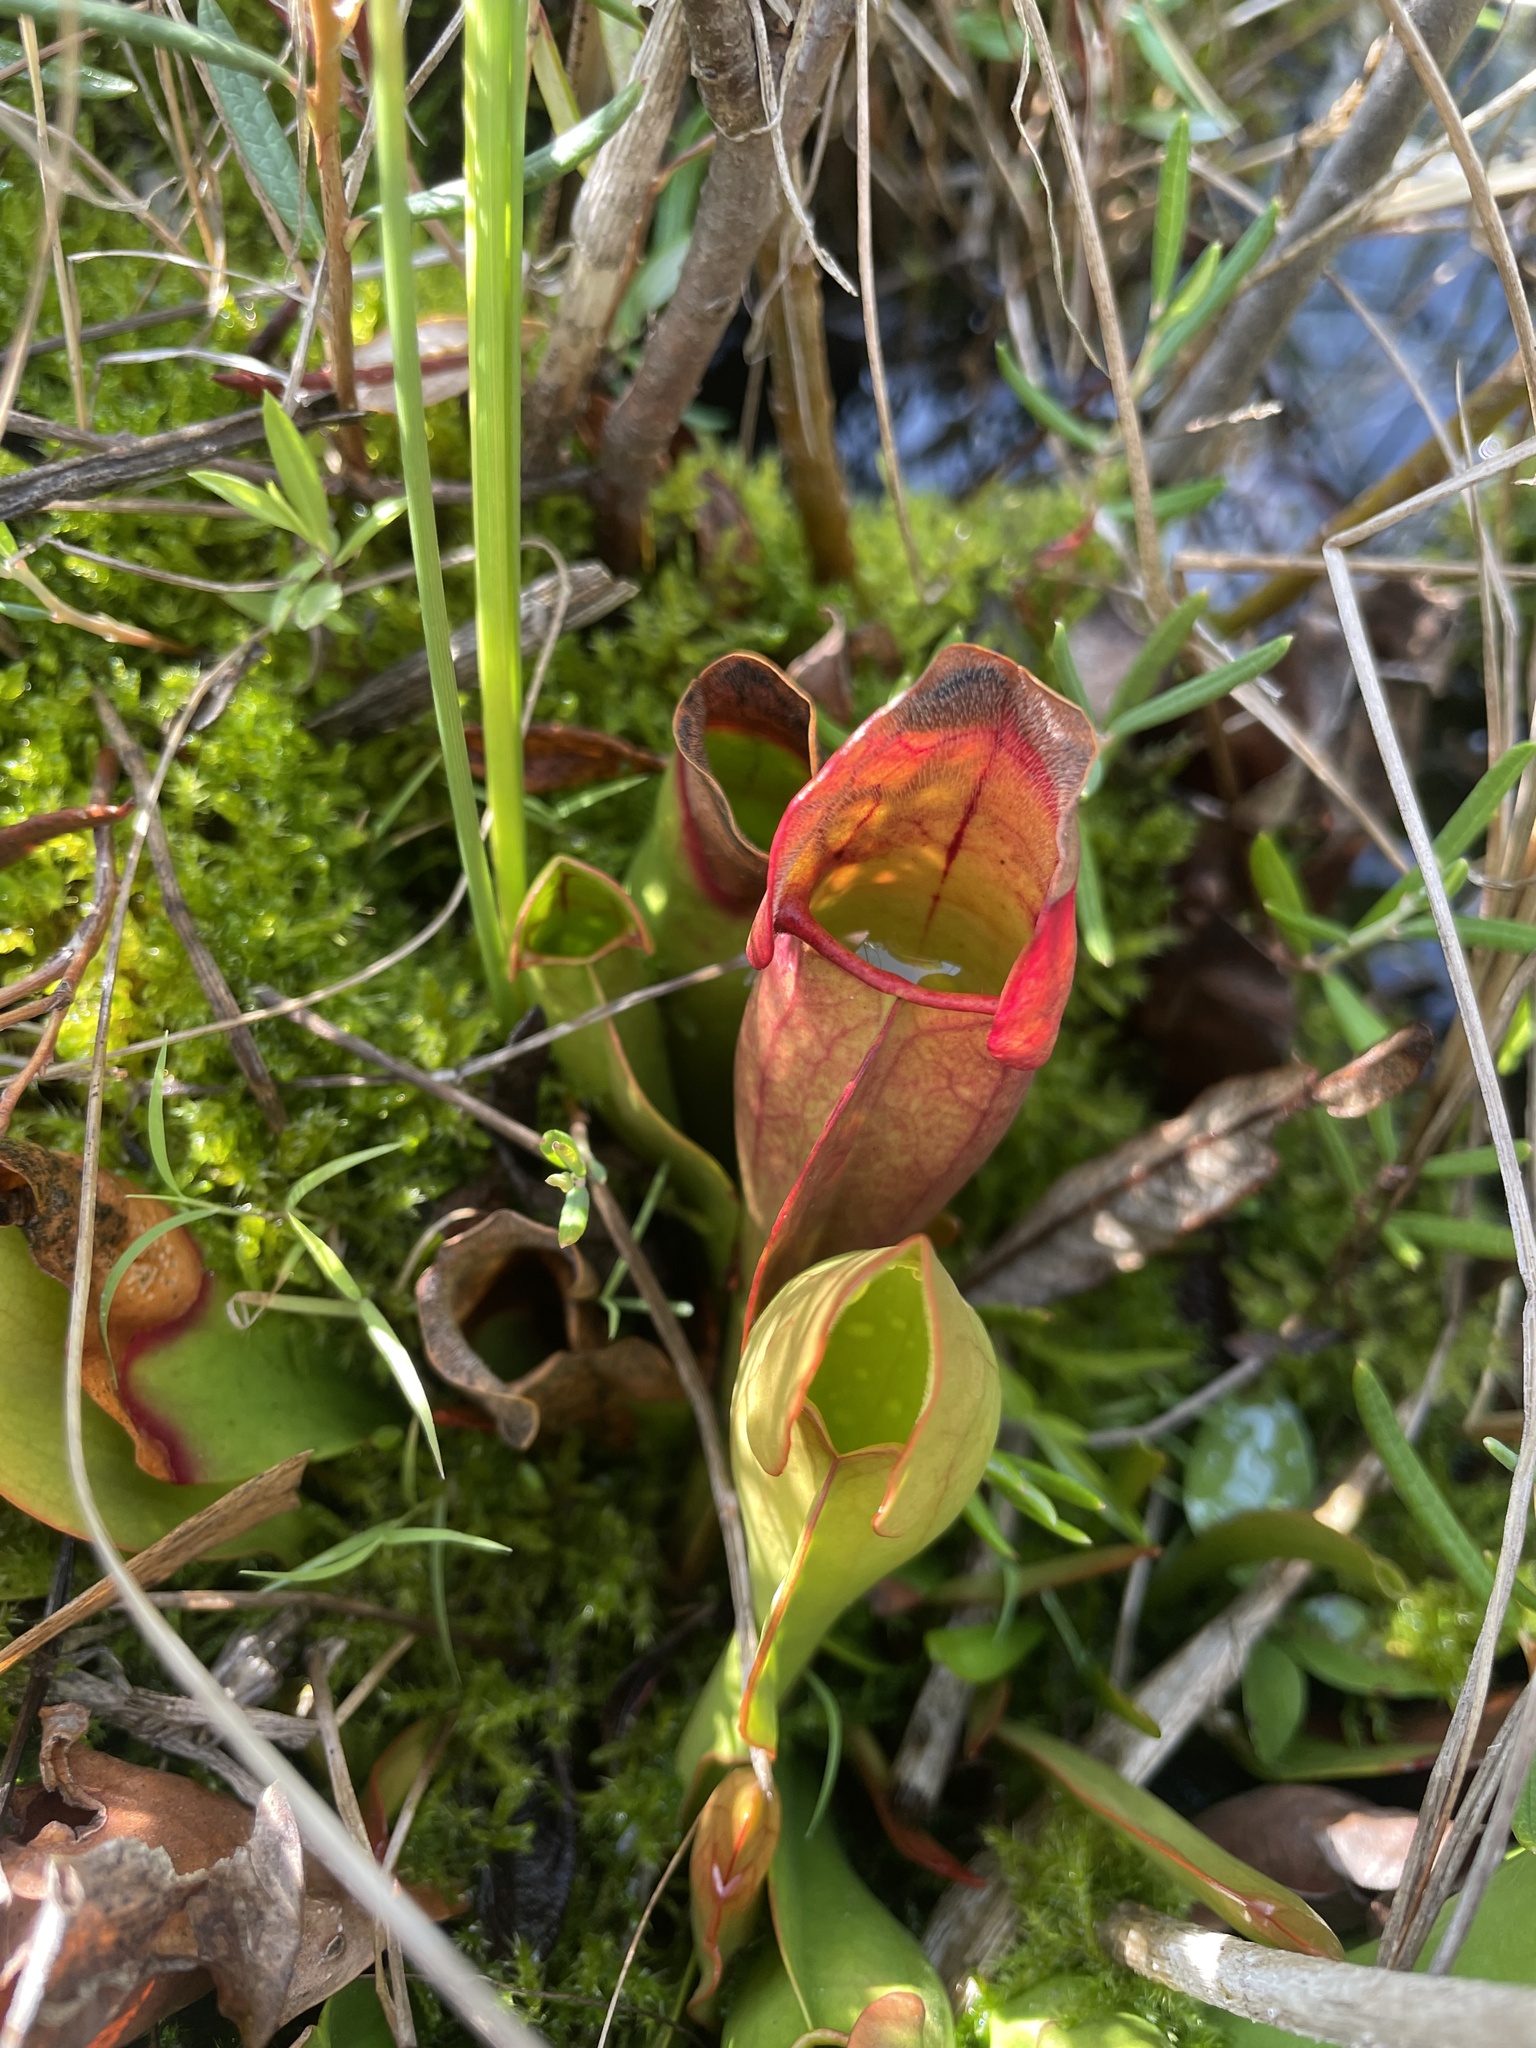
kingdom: Plantae
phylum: Tracheophyta
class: Magnoliopsida
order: Ericales
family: Sarraceniaceae
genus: Sarracenia
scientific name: Sarracenia purpurea
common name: Pitcherplant
